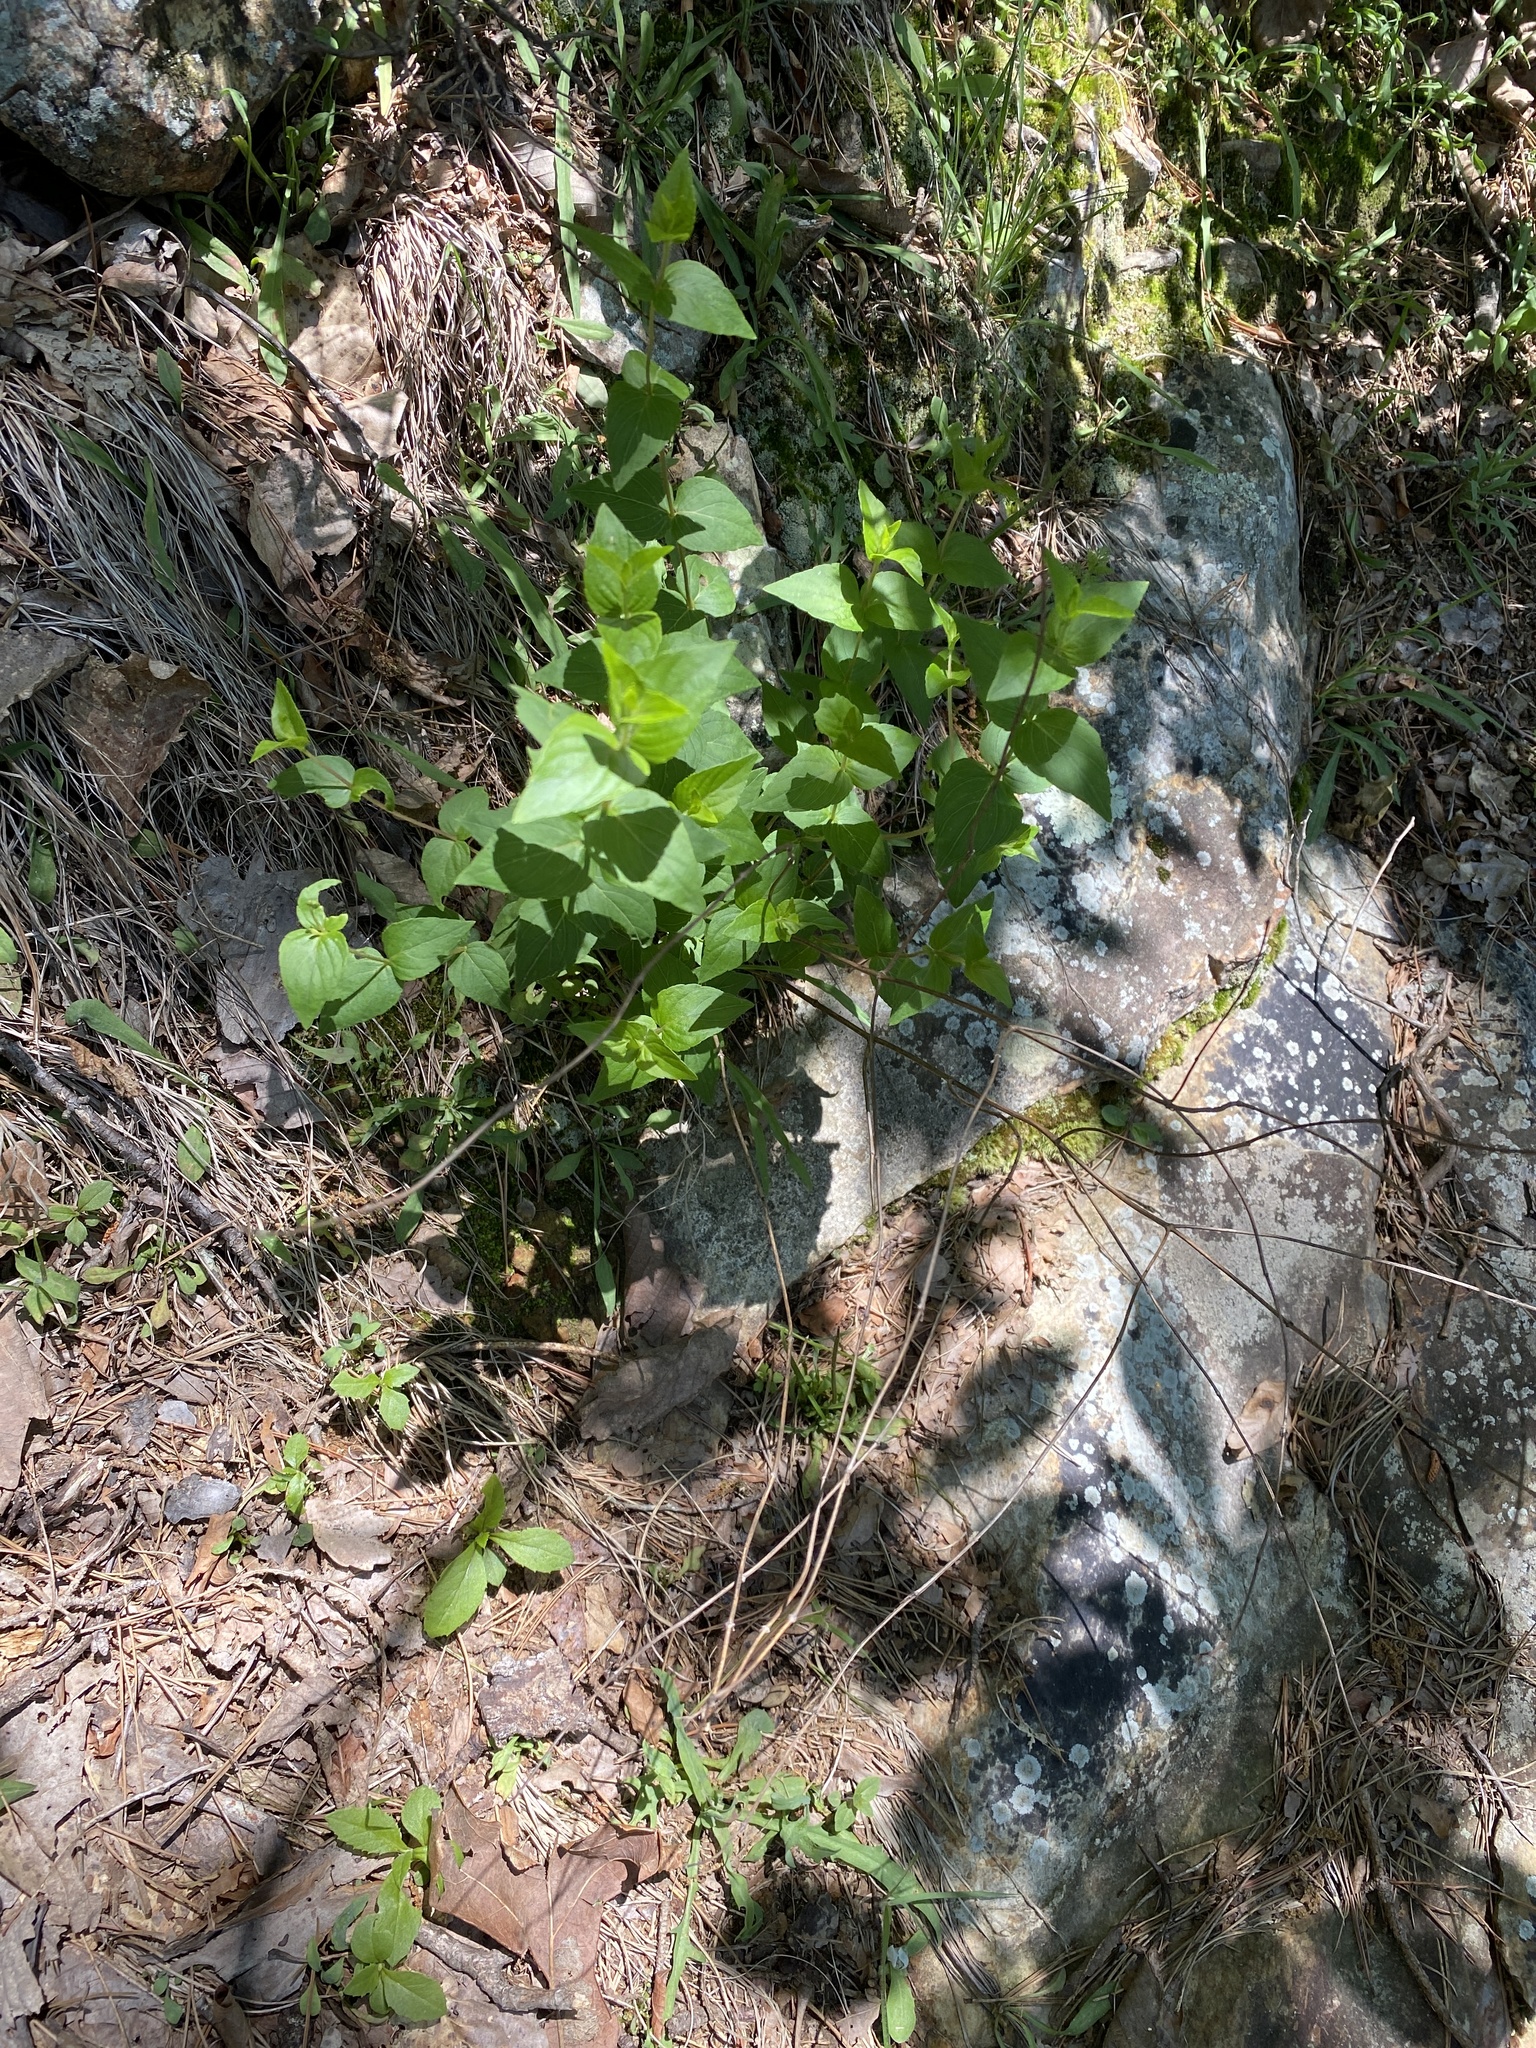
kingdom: Plantae
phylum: Tracheophyta
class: Magnoliopsida
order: Lamiales
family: Lamiaceae
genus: Cunila
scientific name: Cunila origanoides
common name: American dittany
